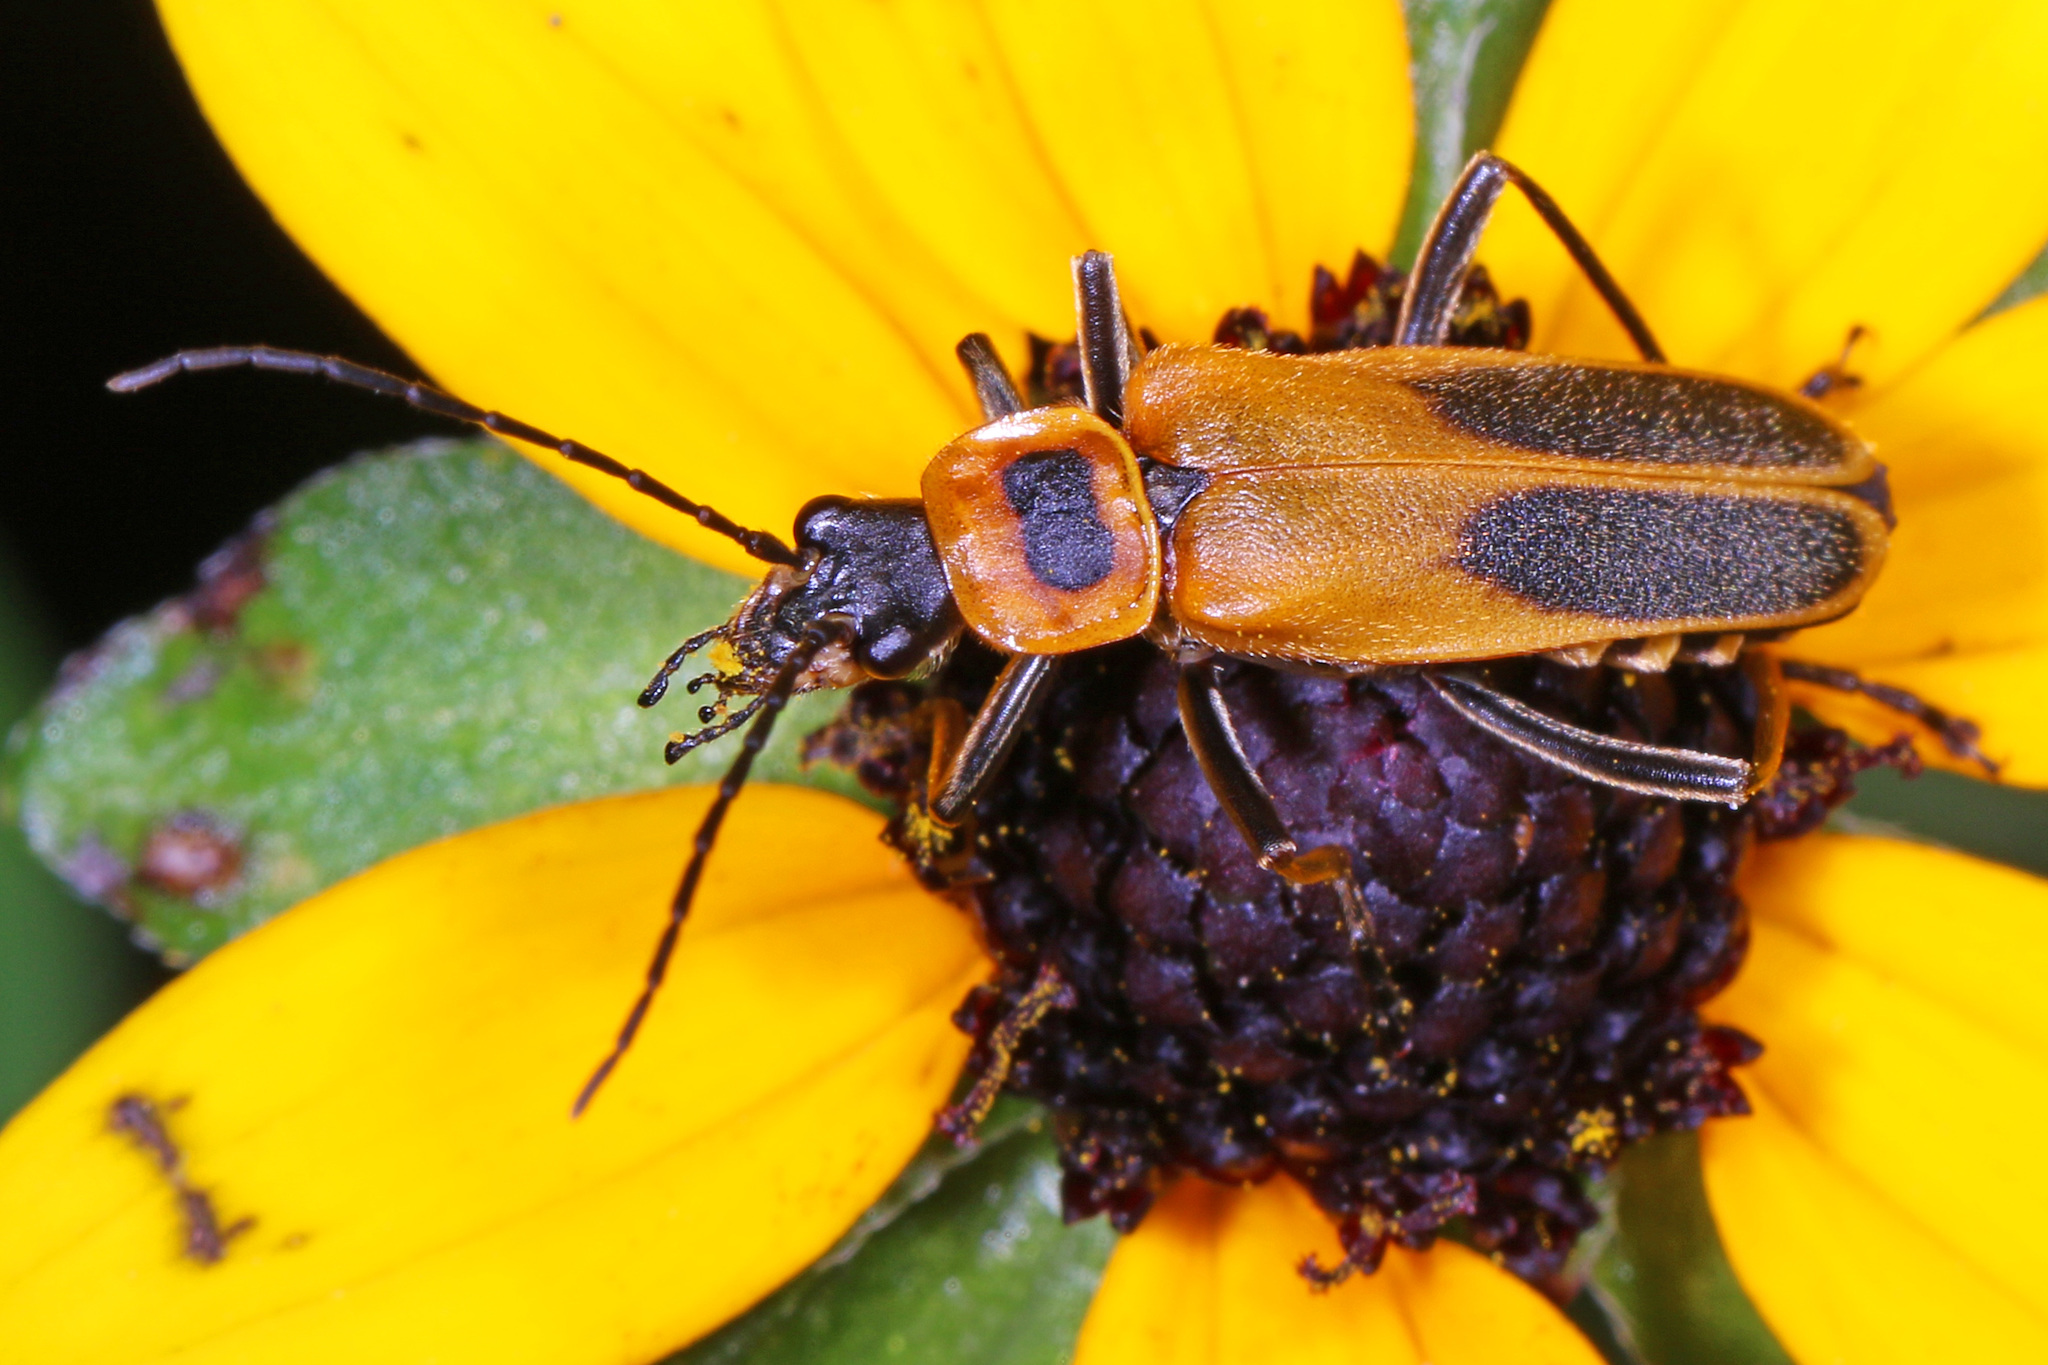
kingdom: Animalia
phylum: Arthropoda
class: Insecta
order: Coleoptera
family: Cantharidae
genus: Chauliognathus
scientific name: Chauliognathus pensylvanicus
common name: Goldenrod soldier beetle
